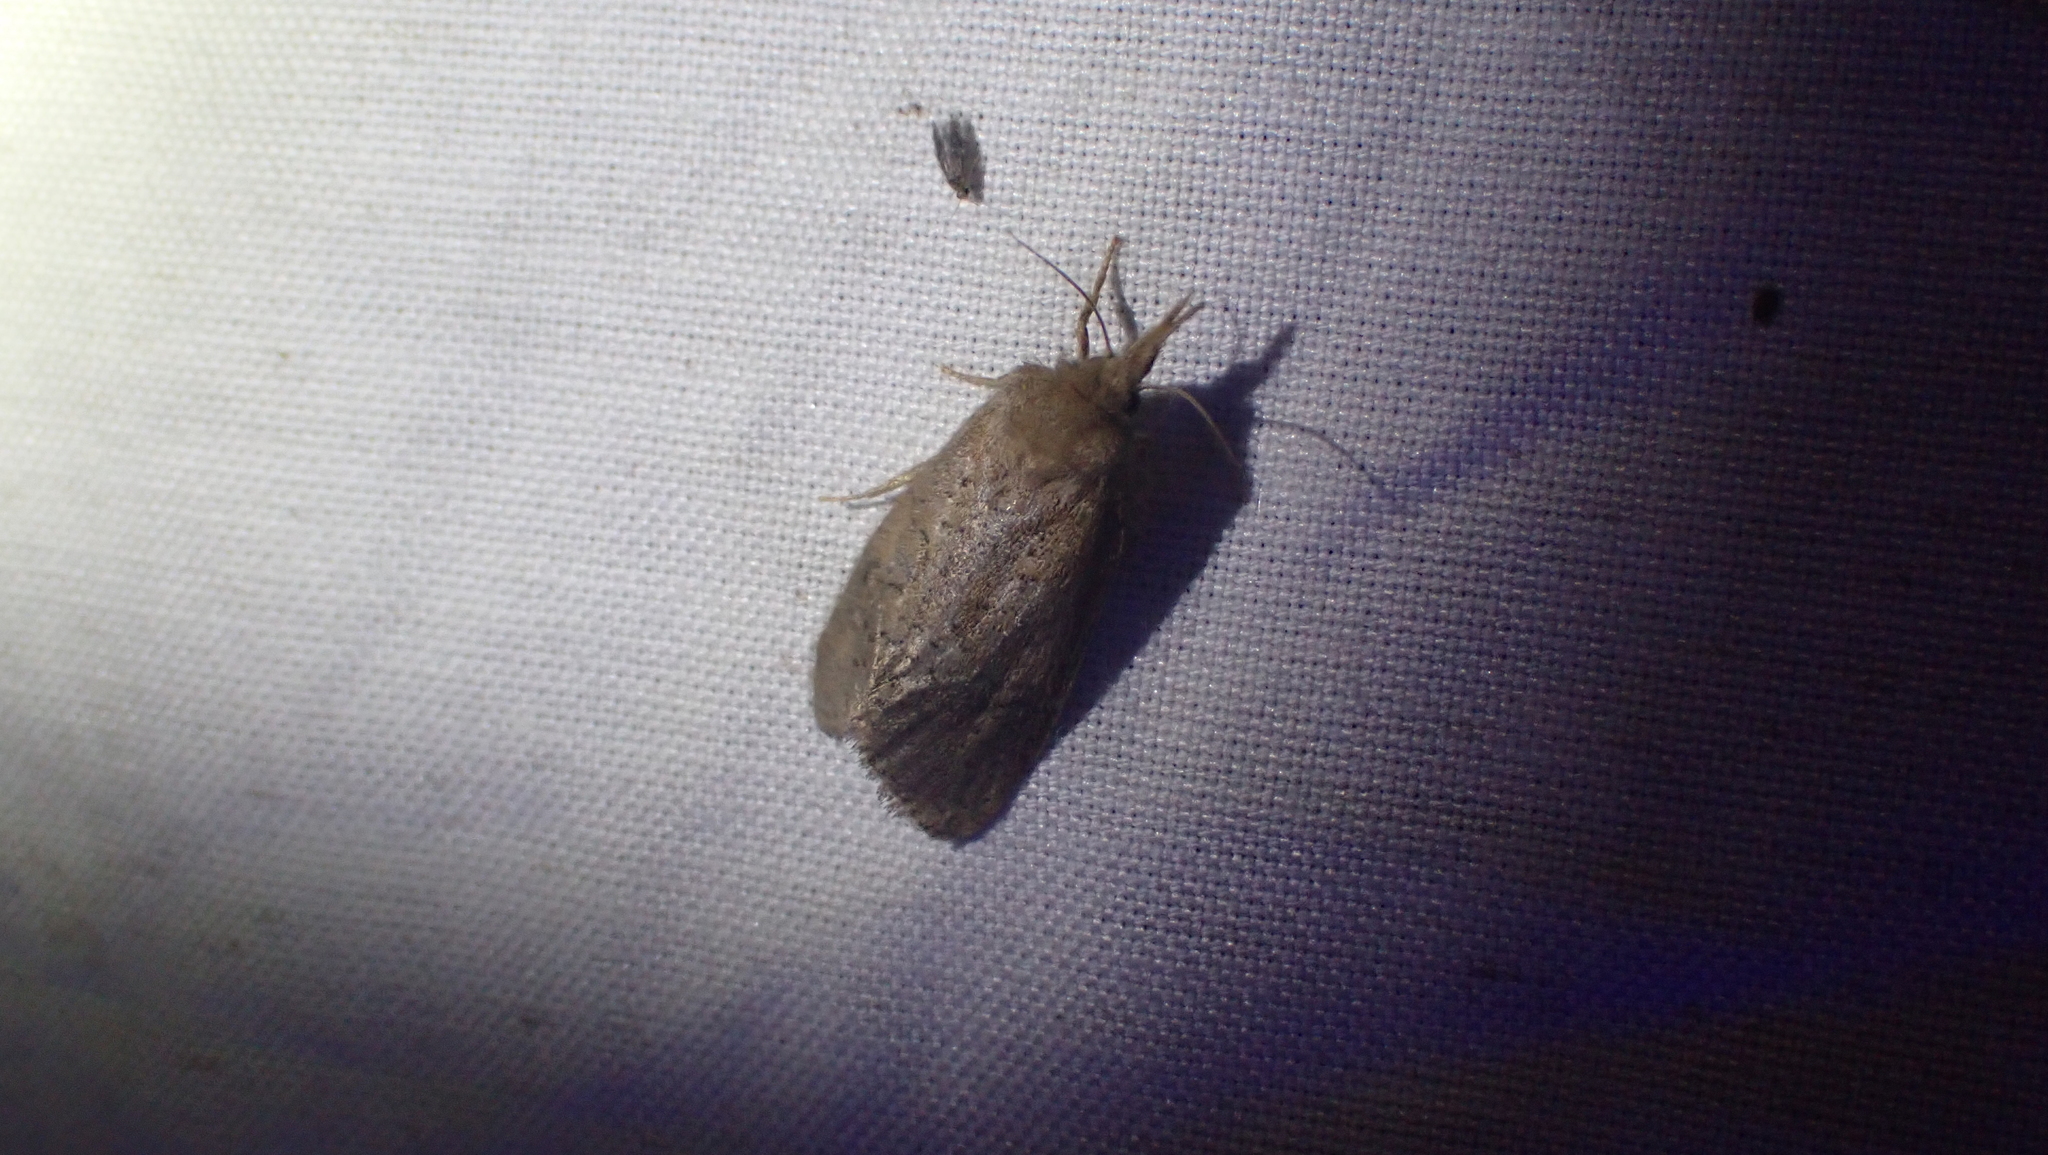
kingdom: Animalia
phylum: Arthropoda
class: Insecta
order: Lepidoptera
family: Tineidae
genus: Acrolophus
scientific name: Acrolophus plumifrontella
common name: Eastern grass tubeworm moth
